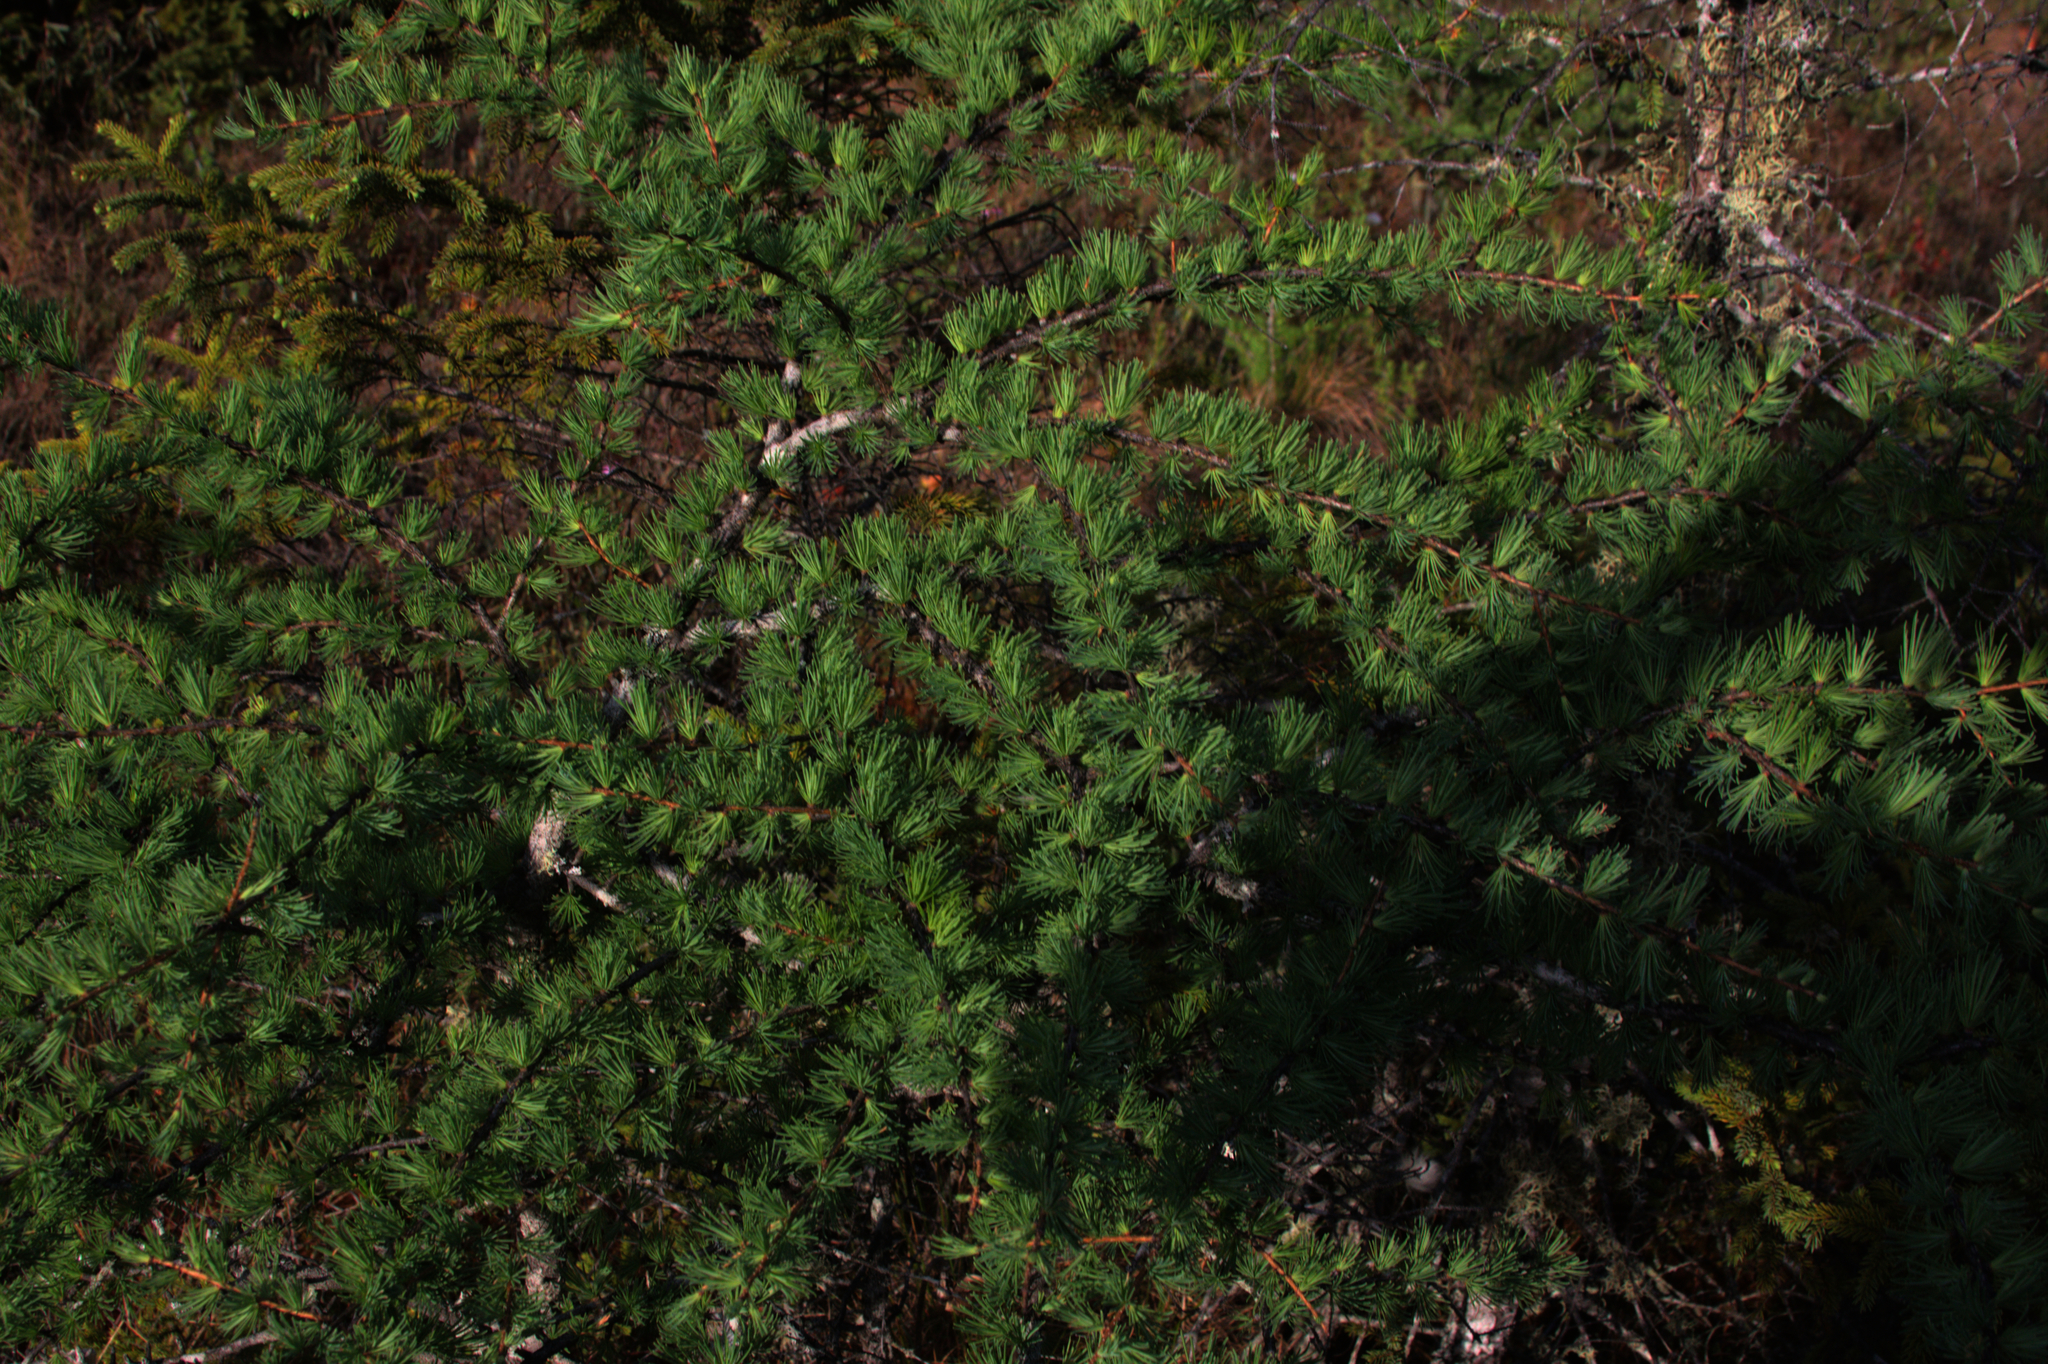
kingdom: Plantae
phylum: Tracheophyta
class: Pinopsida
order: Pinales
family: Pinaceae
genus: Larix
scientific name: Larix laricina
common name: American larch
